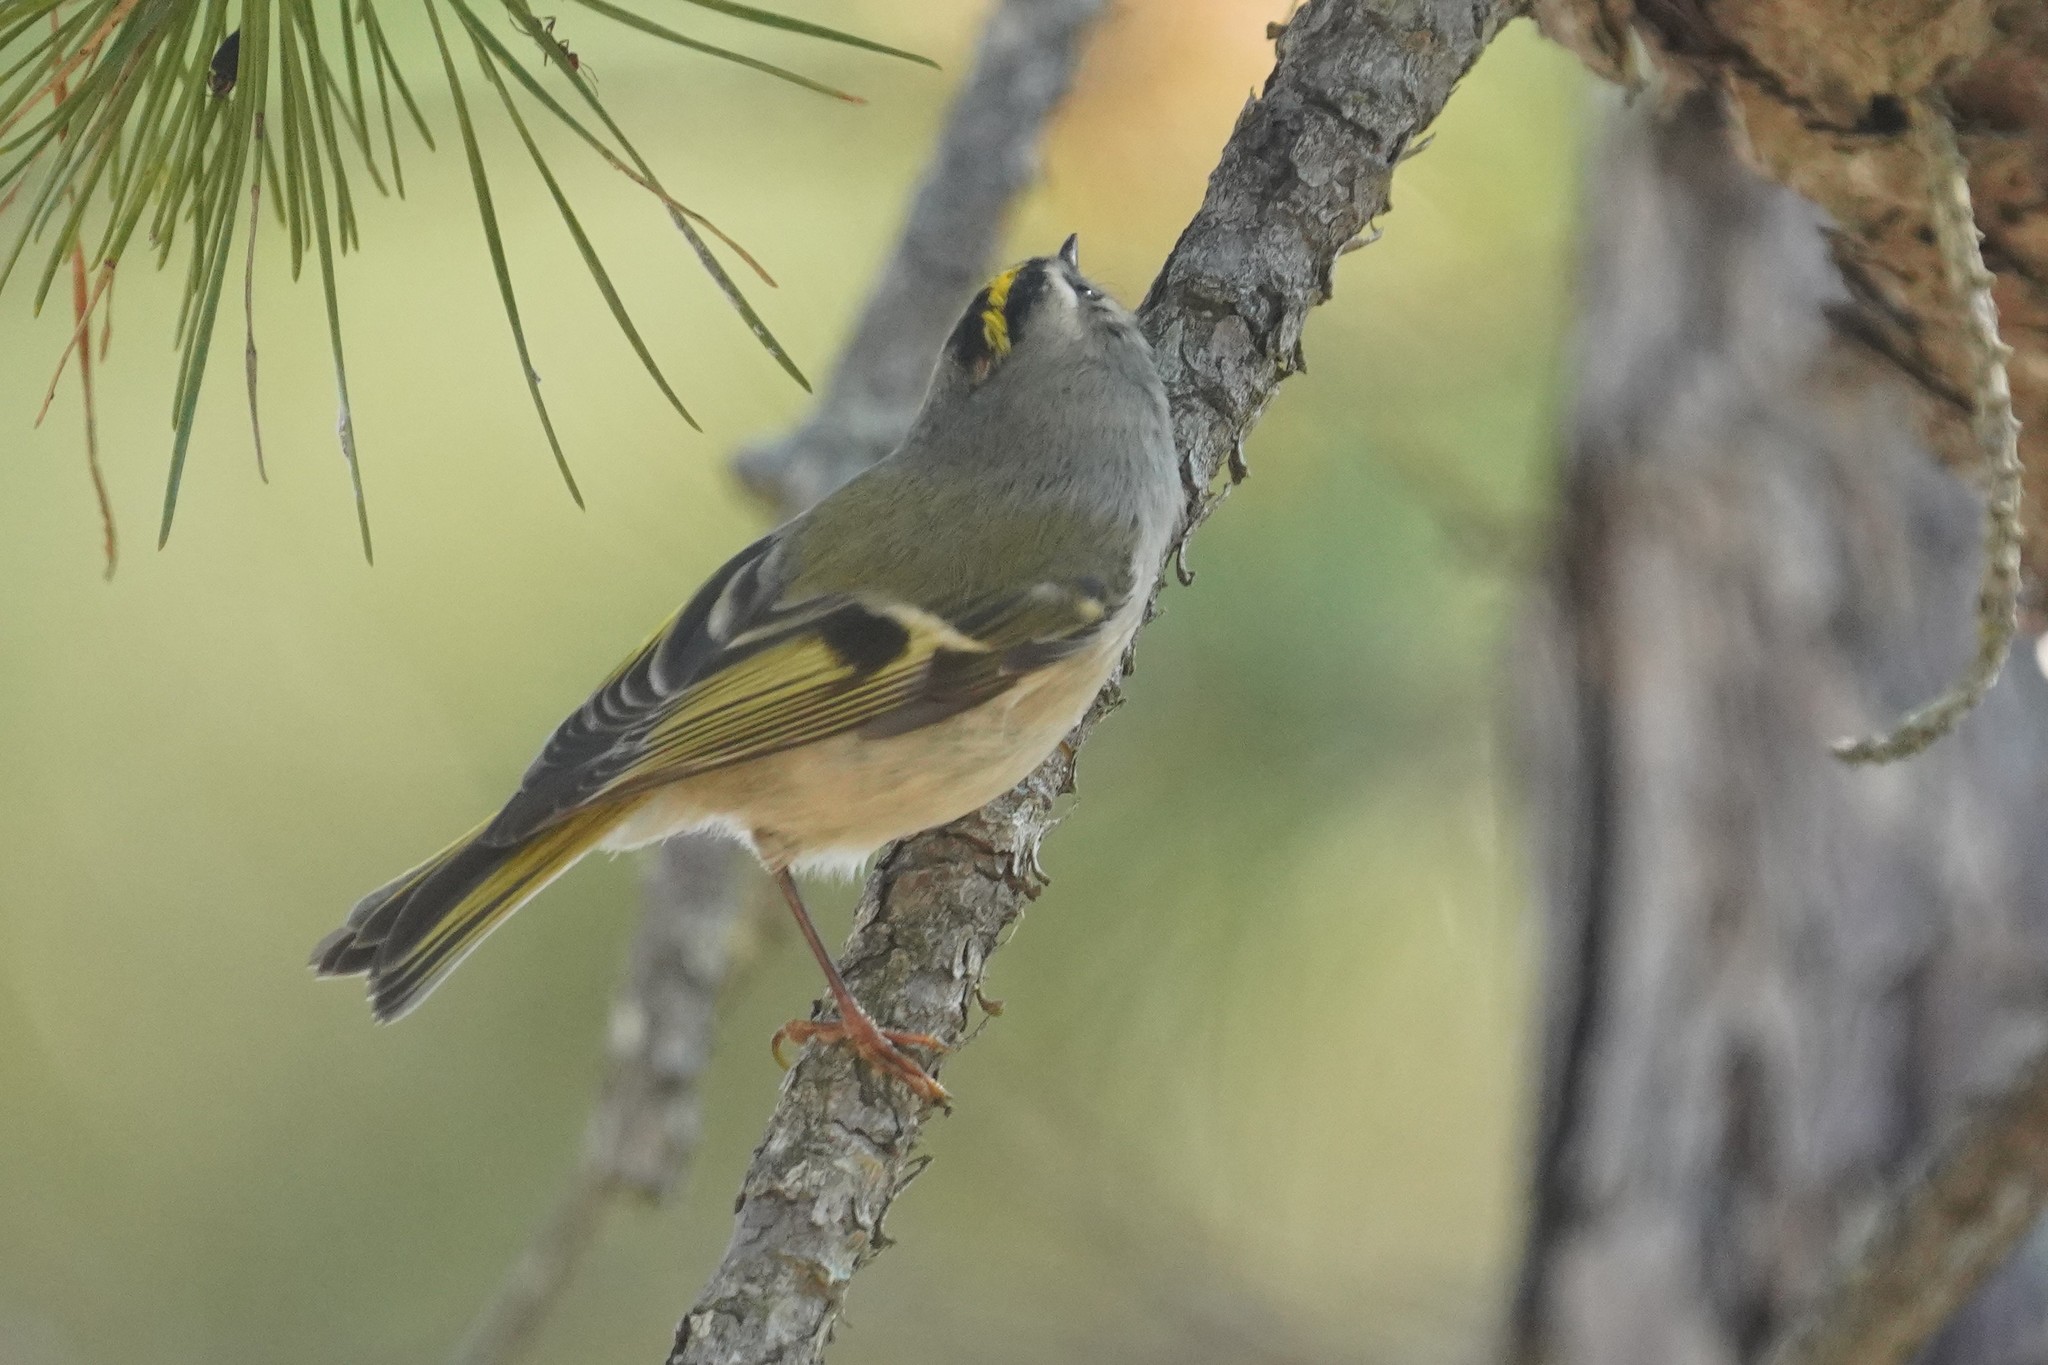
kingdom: Animalia
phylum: Chordata
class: Aves
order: Passeriformes
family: Regulidae
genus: Regulus
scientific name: Regulus satrapa
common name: Golden-crowned kinglet
